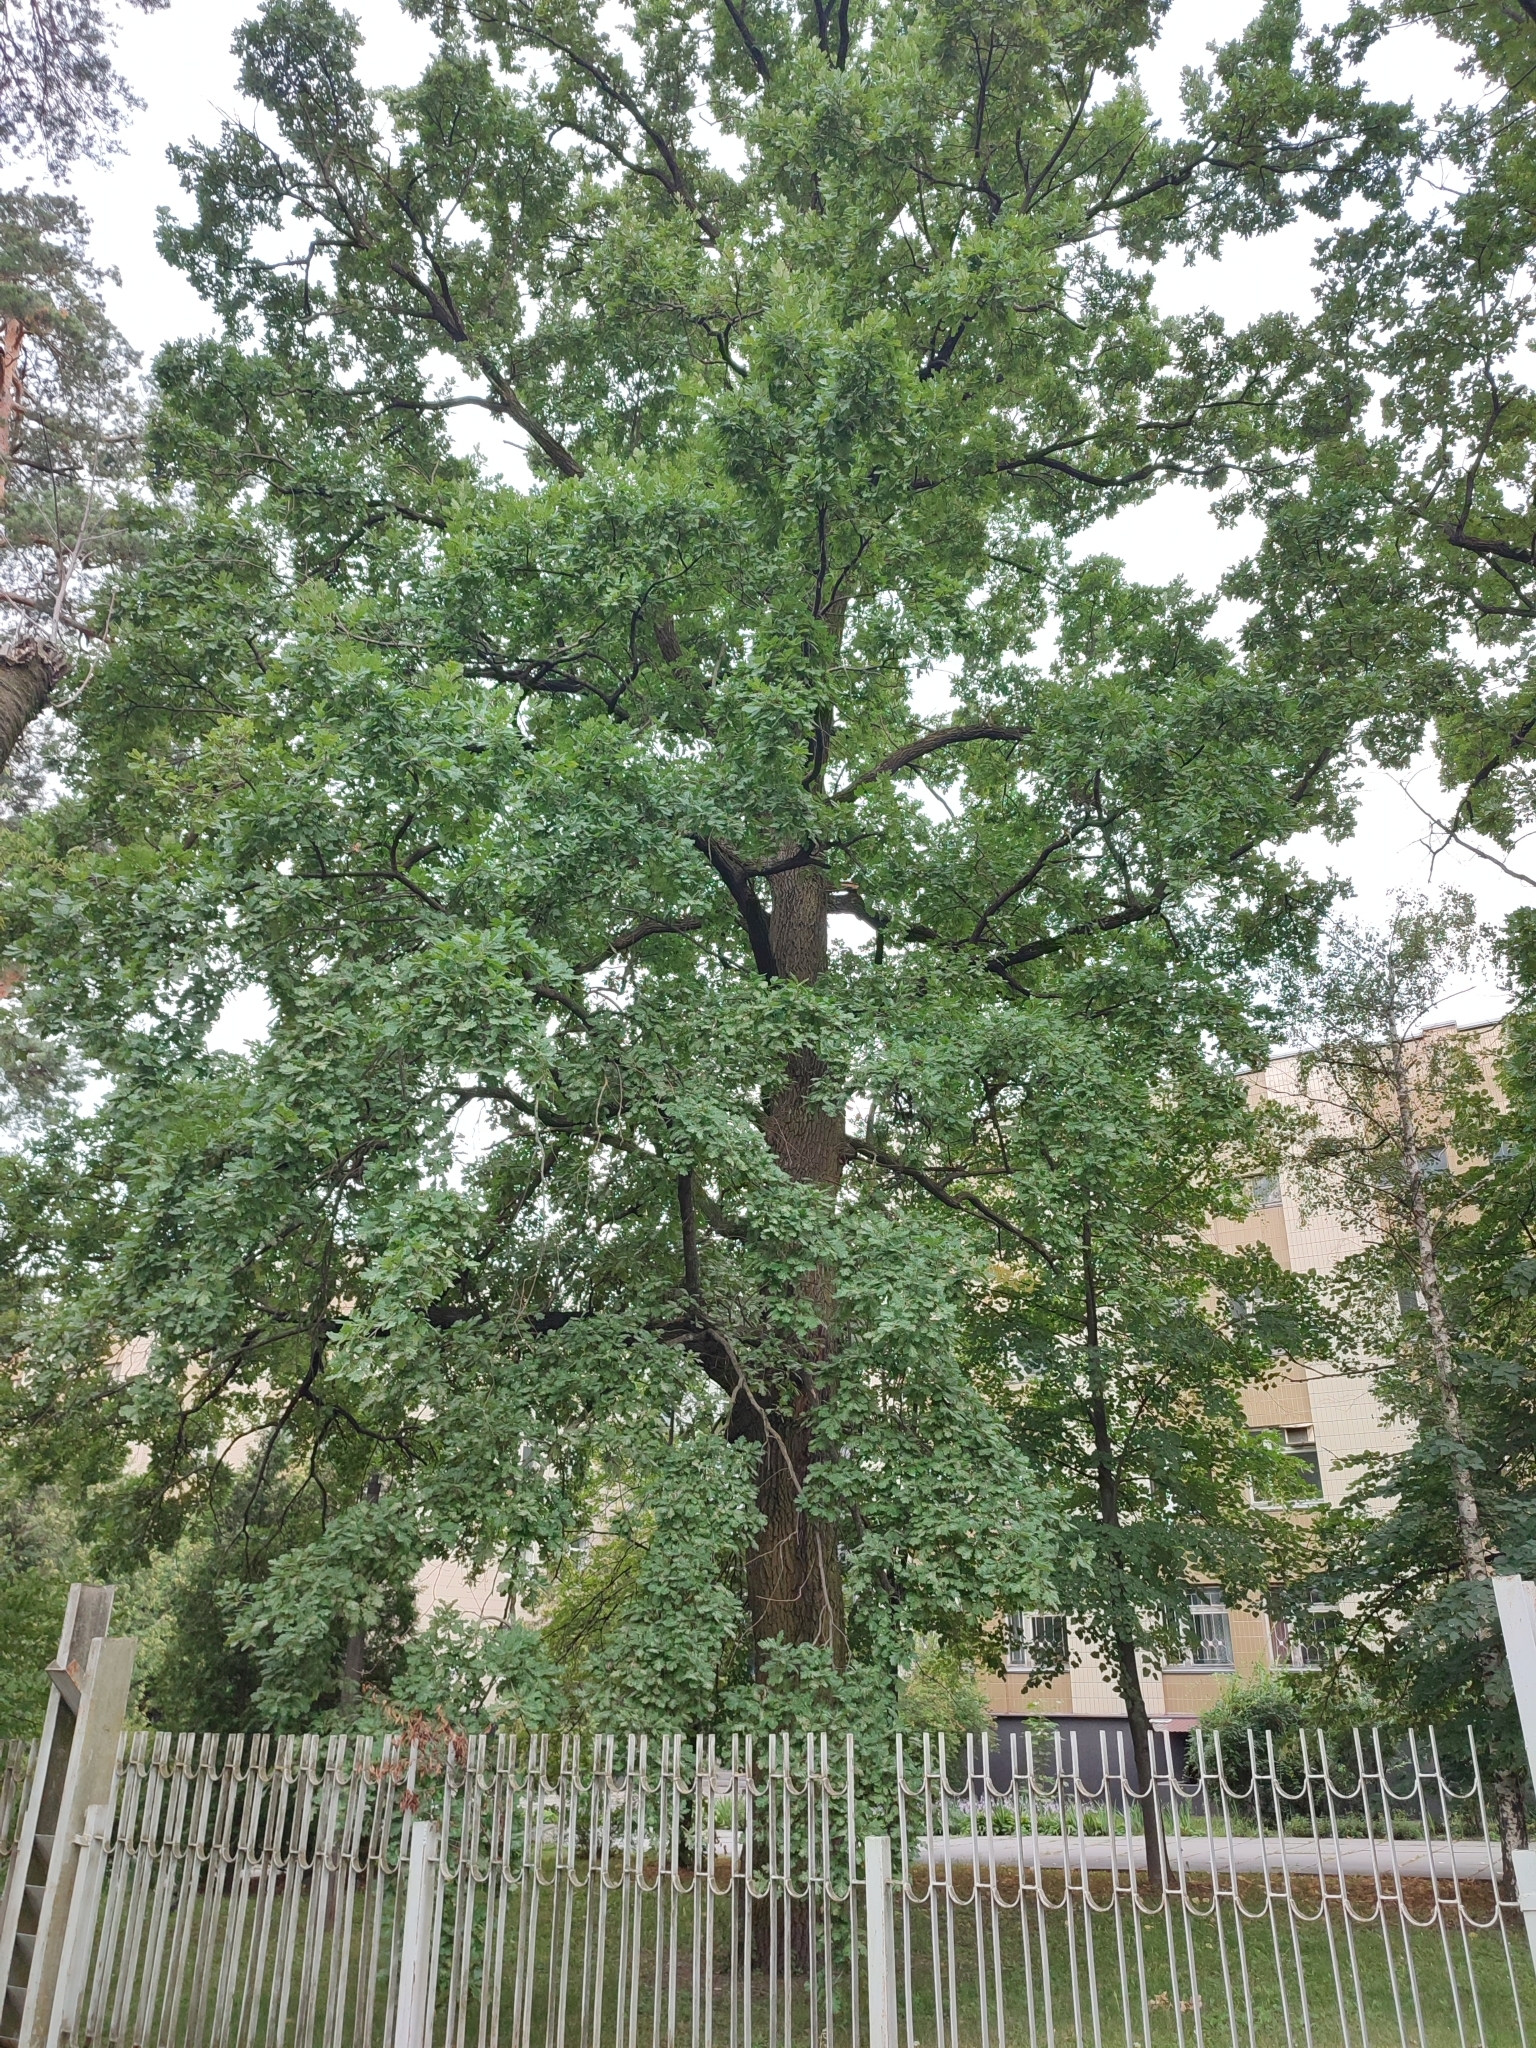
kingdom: Plantae
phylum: Tracheophyta
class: Magnoliopsida
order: Fagales
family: Fagaceae
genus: Quercus
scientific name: Quercus robur
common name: Pedunculate oak
